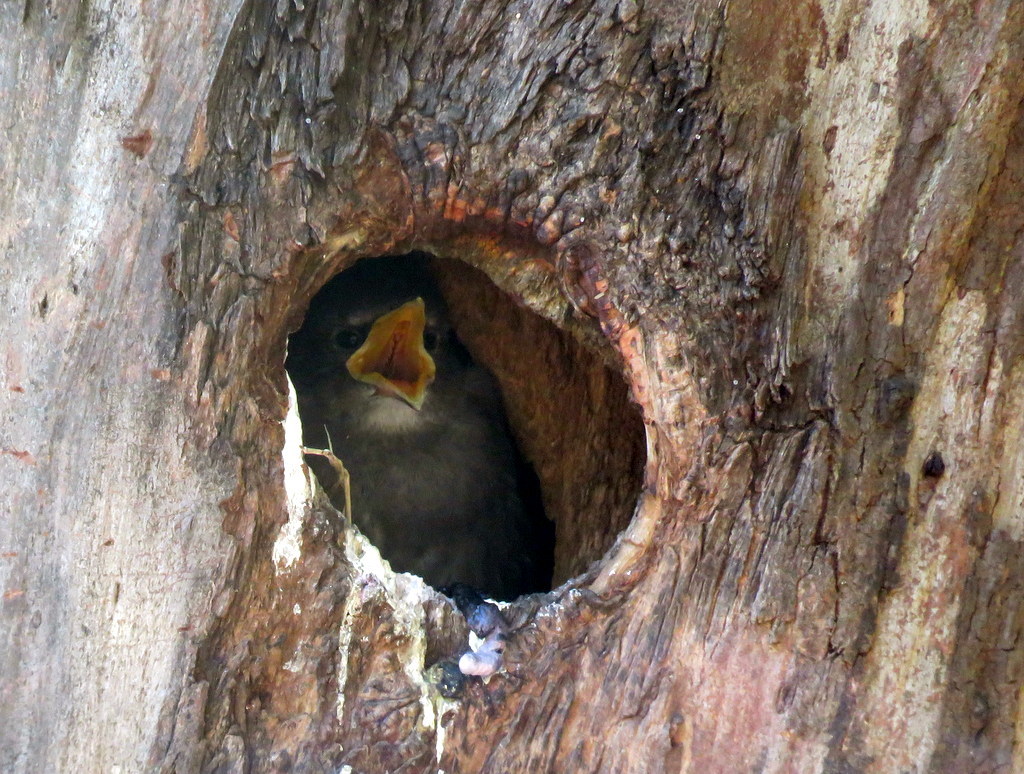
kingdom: Animalia
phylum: Chordata
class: Aves
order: Passeriformes
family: Sturnidae
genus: Sturnus
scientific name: Sturnus vulgaris
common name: Common starling
